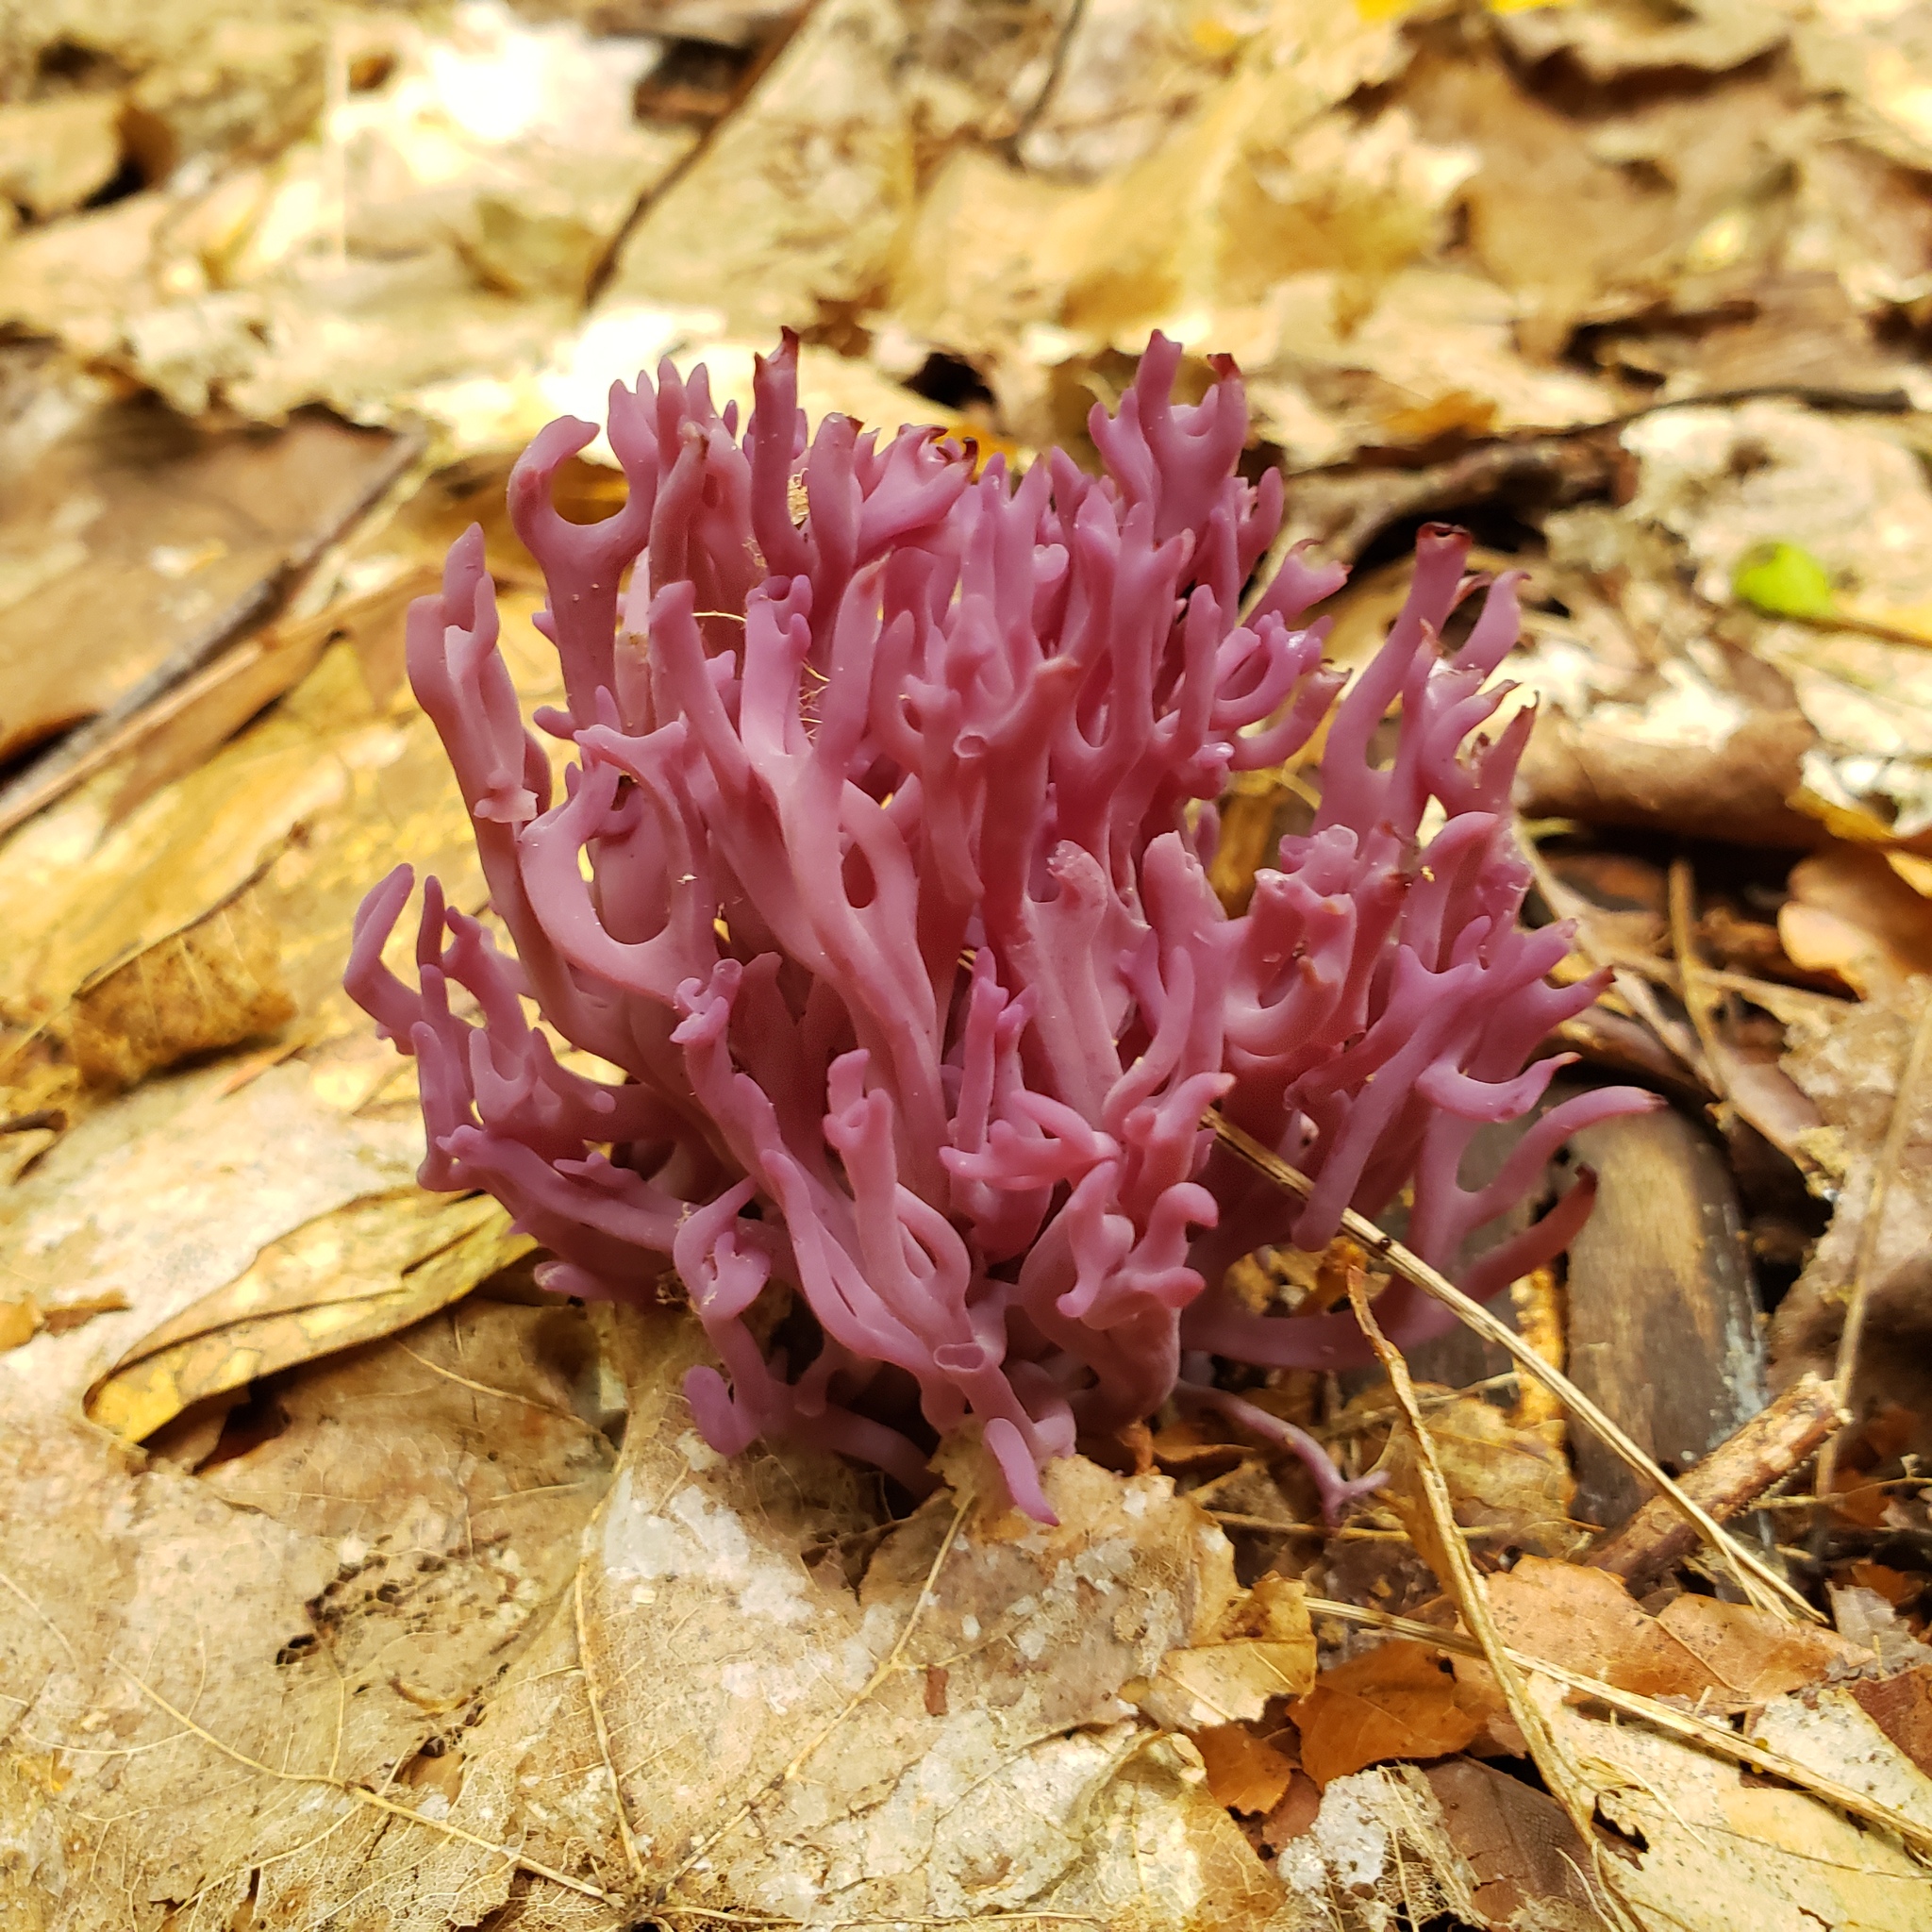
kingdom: Fungi
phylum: Basidiomycota
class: Agaricomycetes
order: Agaricales
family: Clavariaceae
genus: Clavaria
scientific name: Clavaria zollingeri
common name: Violet coral
